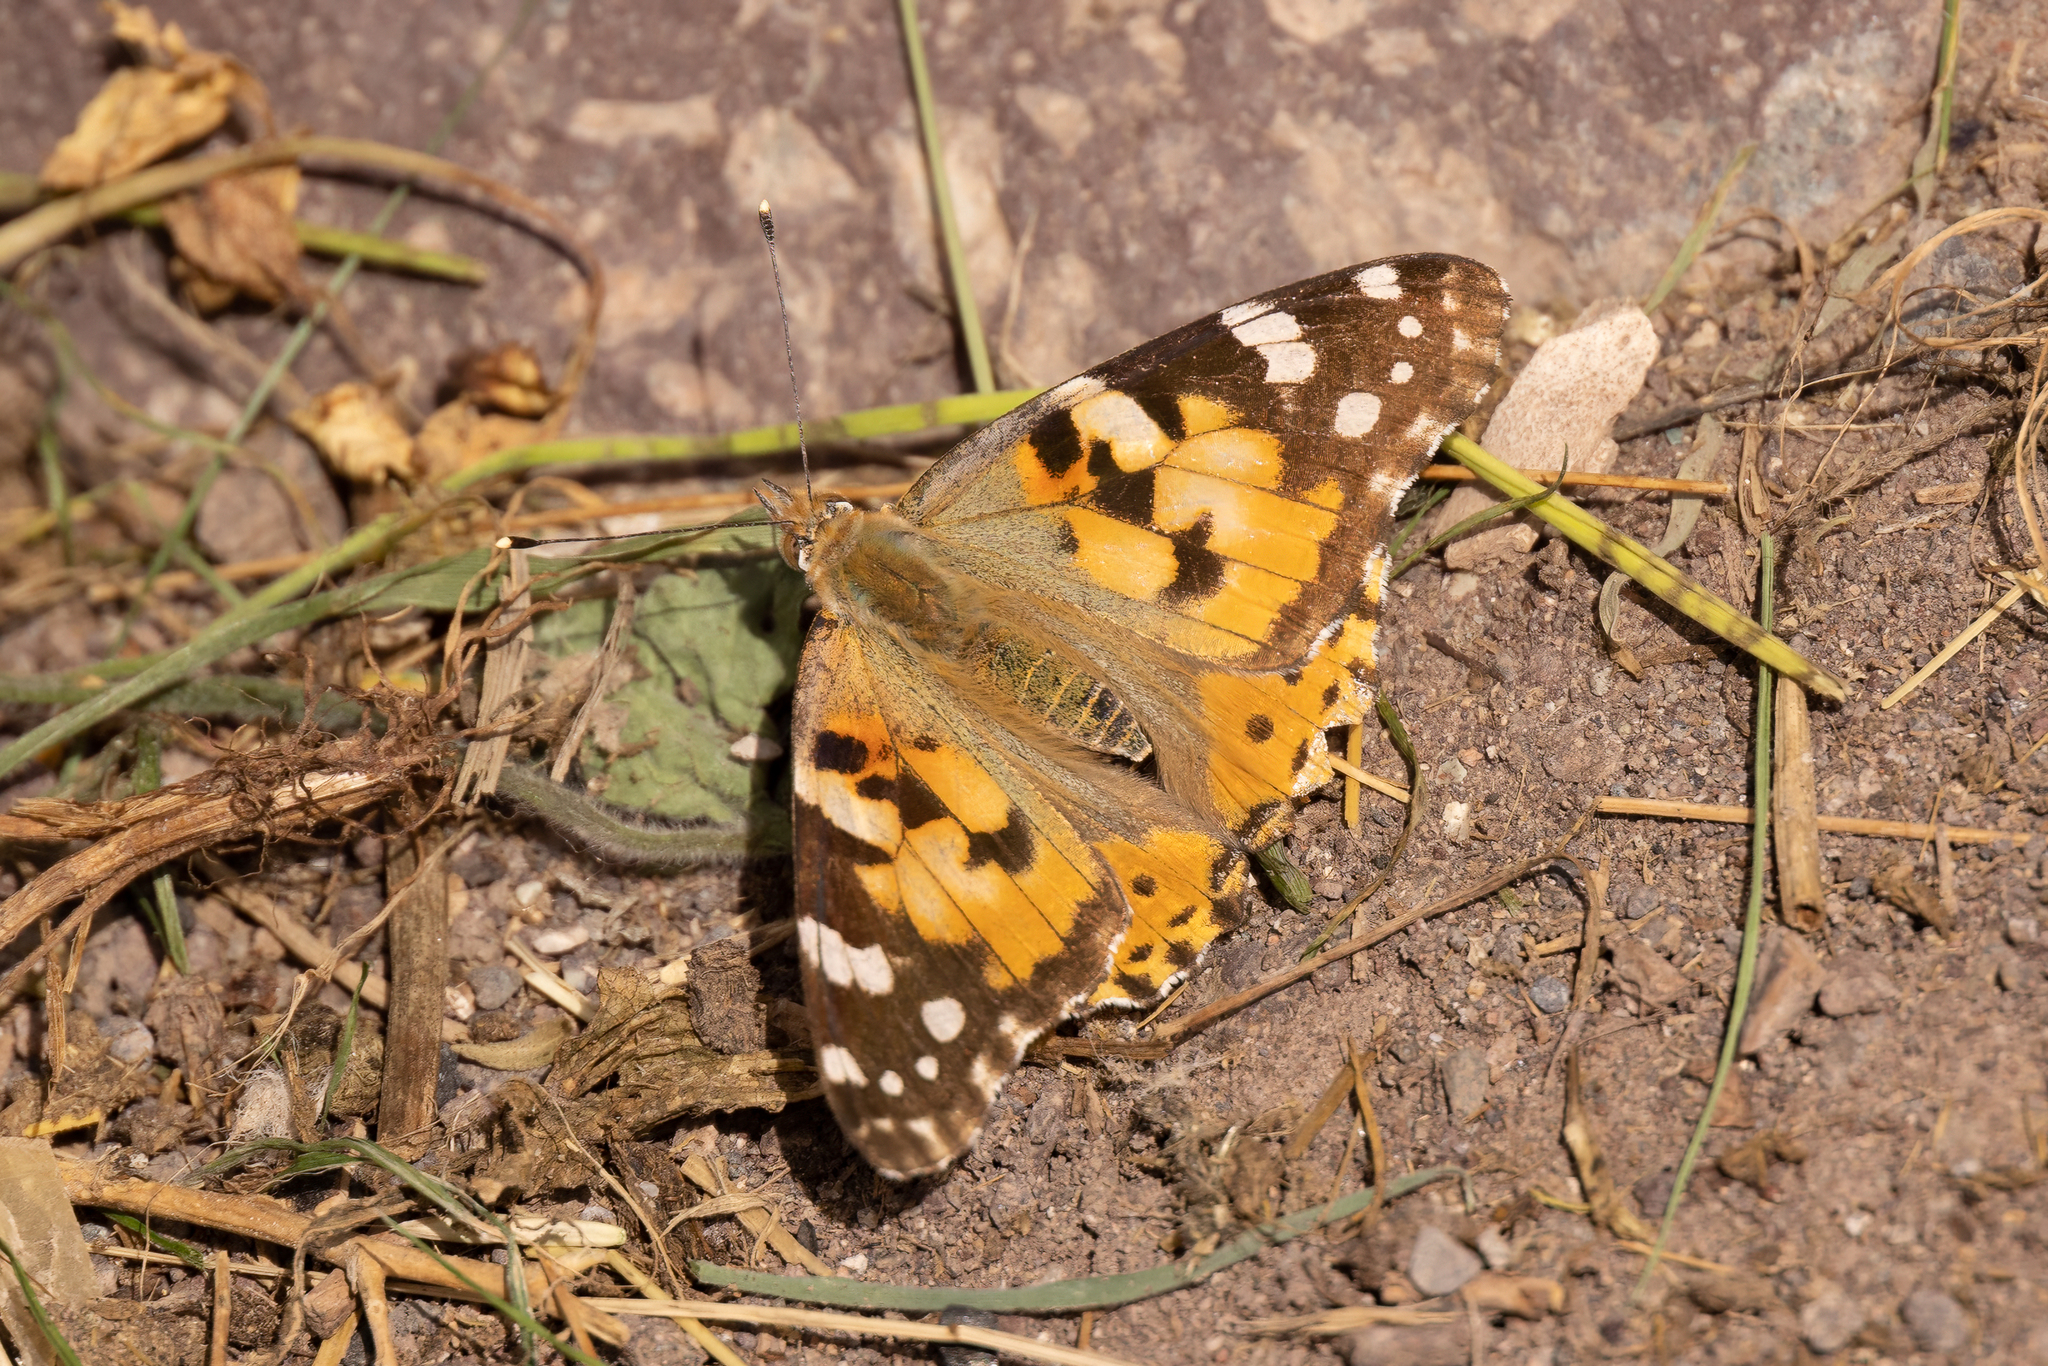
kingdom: Animalia
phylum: Arthropoda
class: Insecta
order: Lepidoptera
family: Nymphalidae
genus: Vanessa
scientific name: Vanessa cardui
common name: Painted lady
